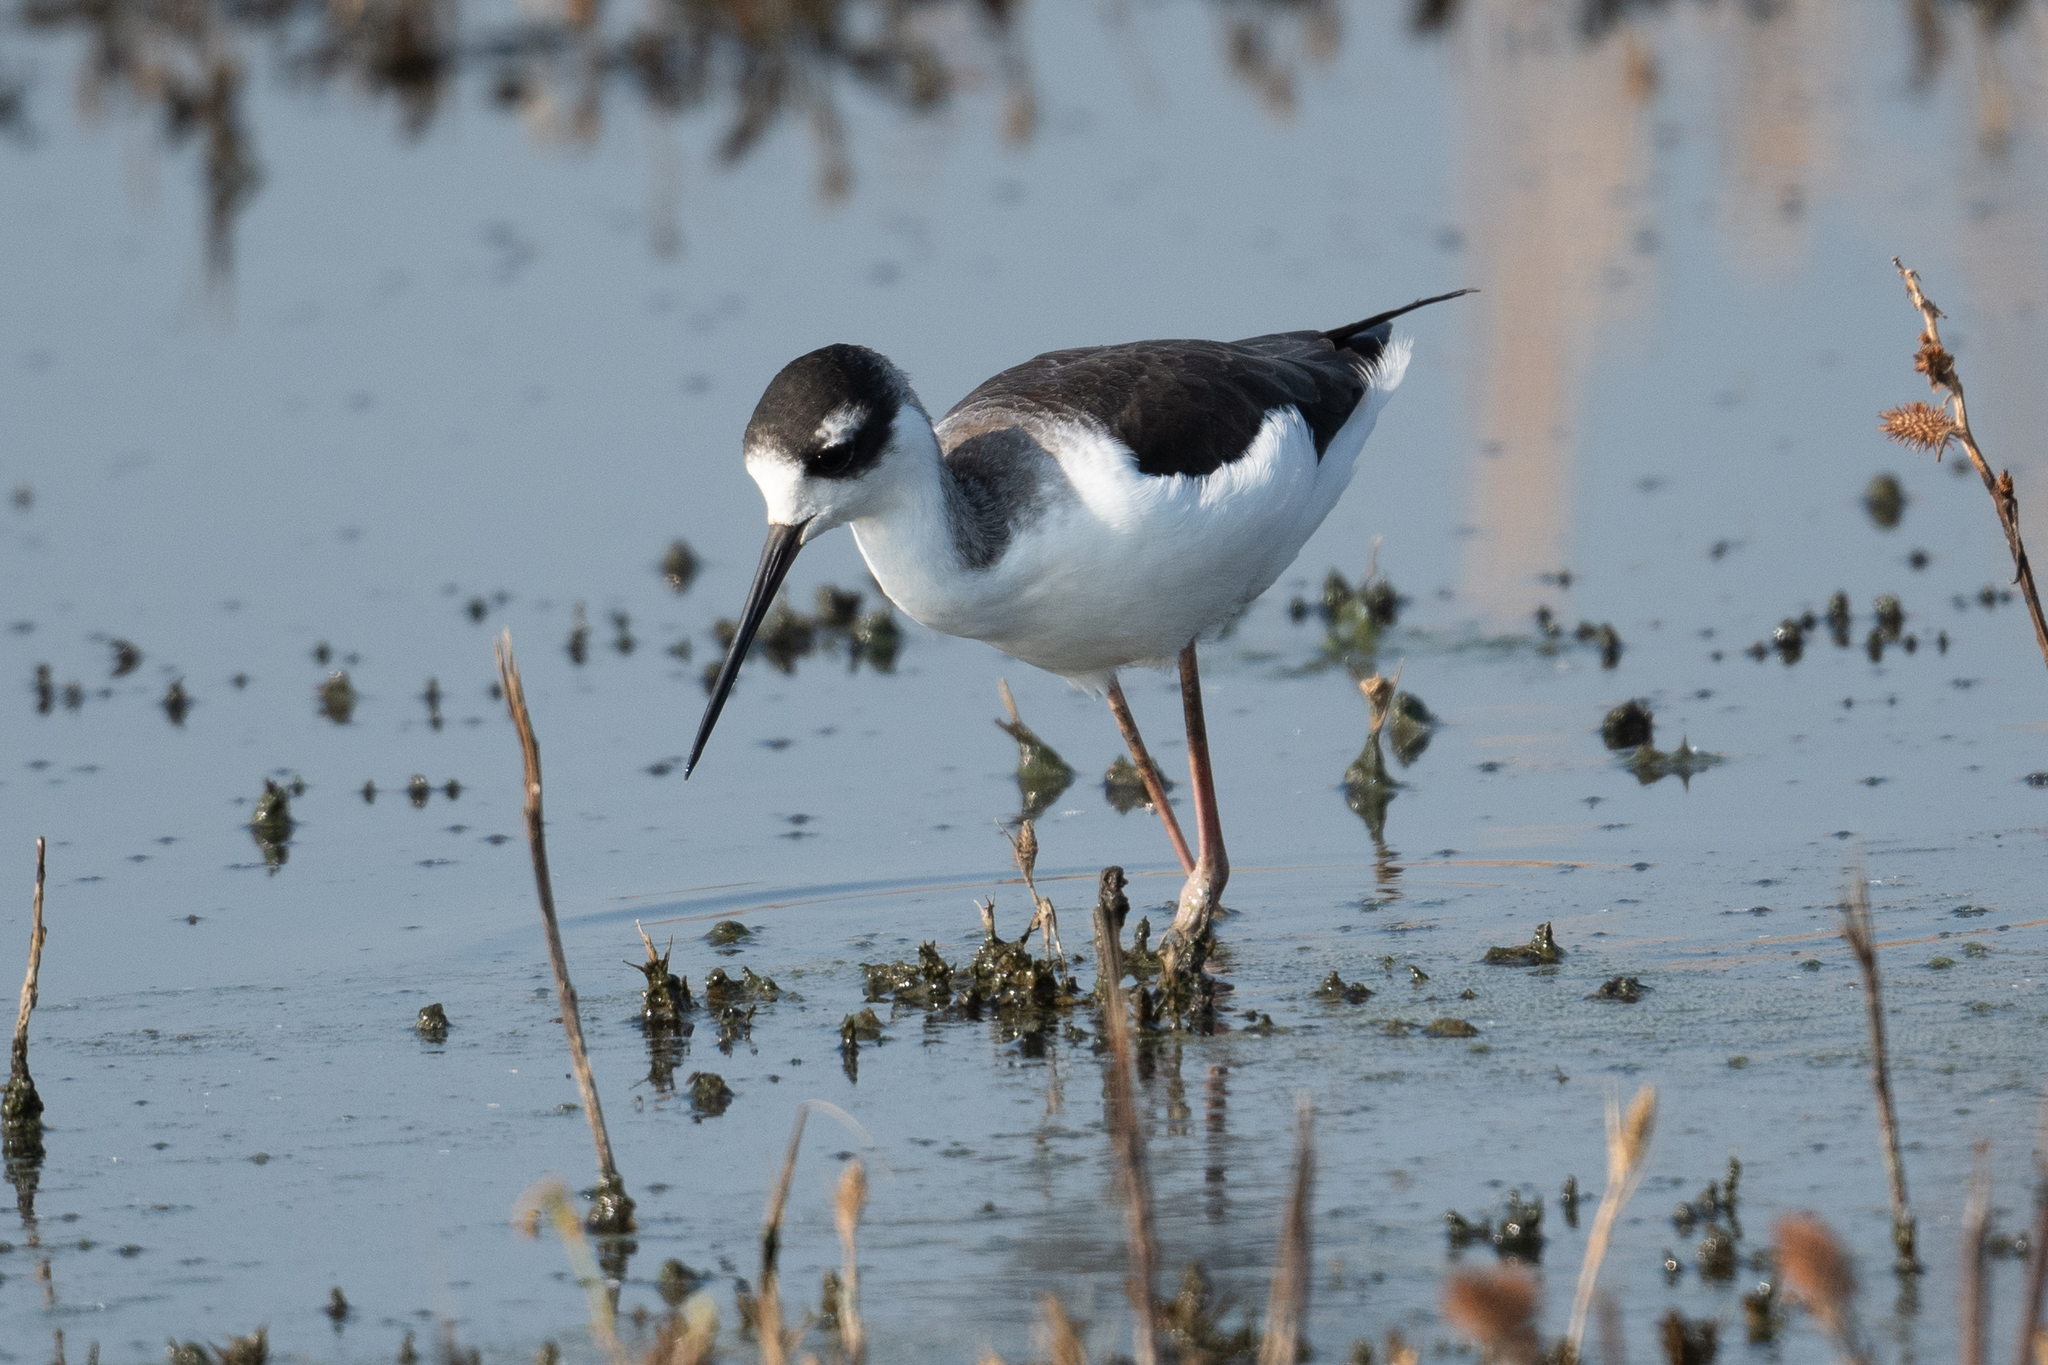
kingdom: Animalia
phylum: Chordata
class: Aves
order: Charadriiformes
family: Recurvirostridae
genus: Himantopus
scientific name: Himantopus mexicanus
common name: Black-necked stilt
